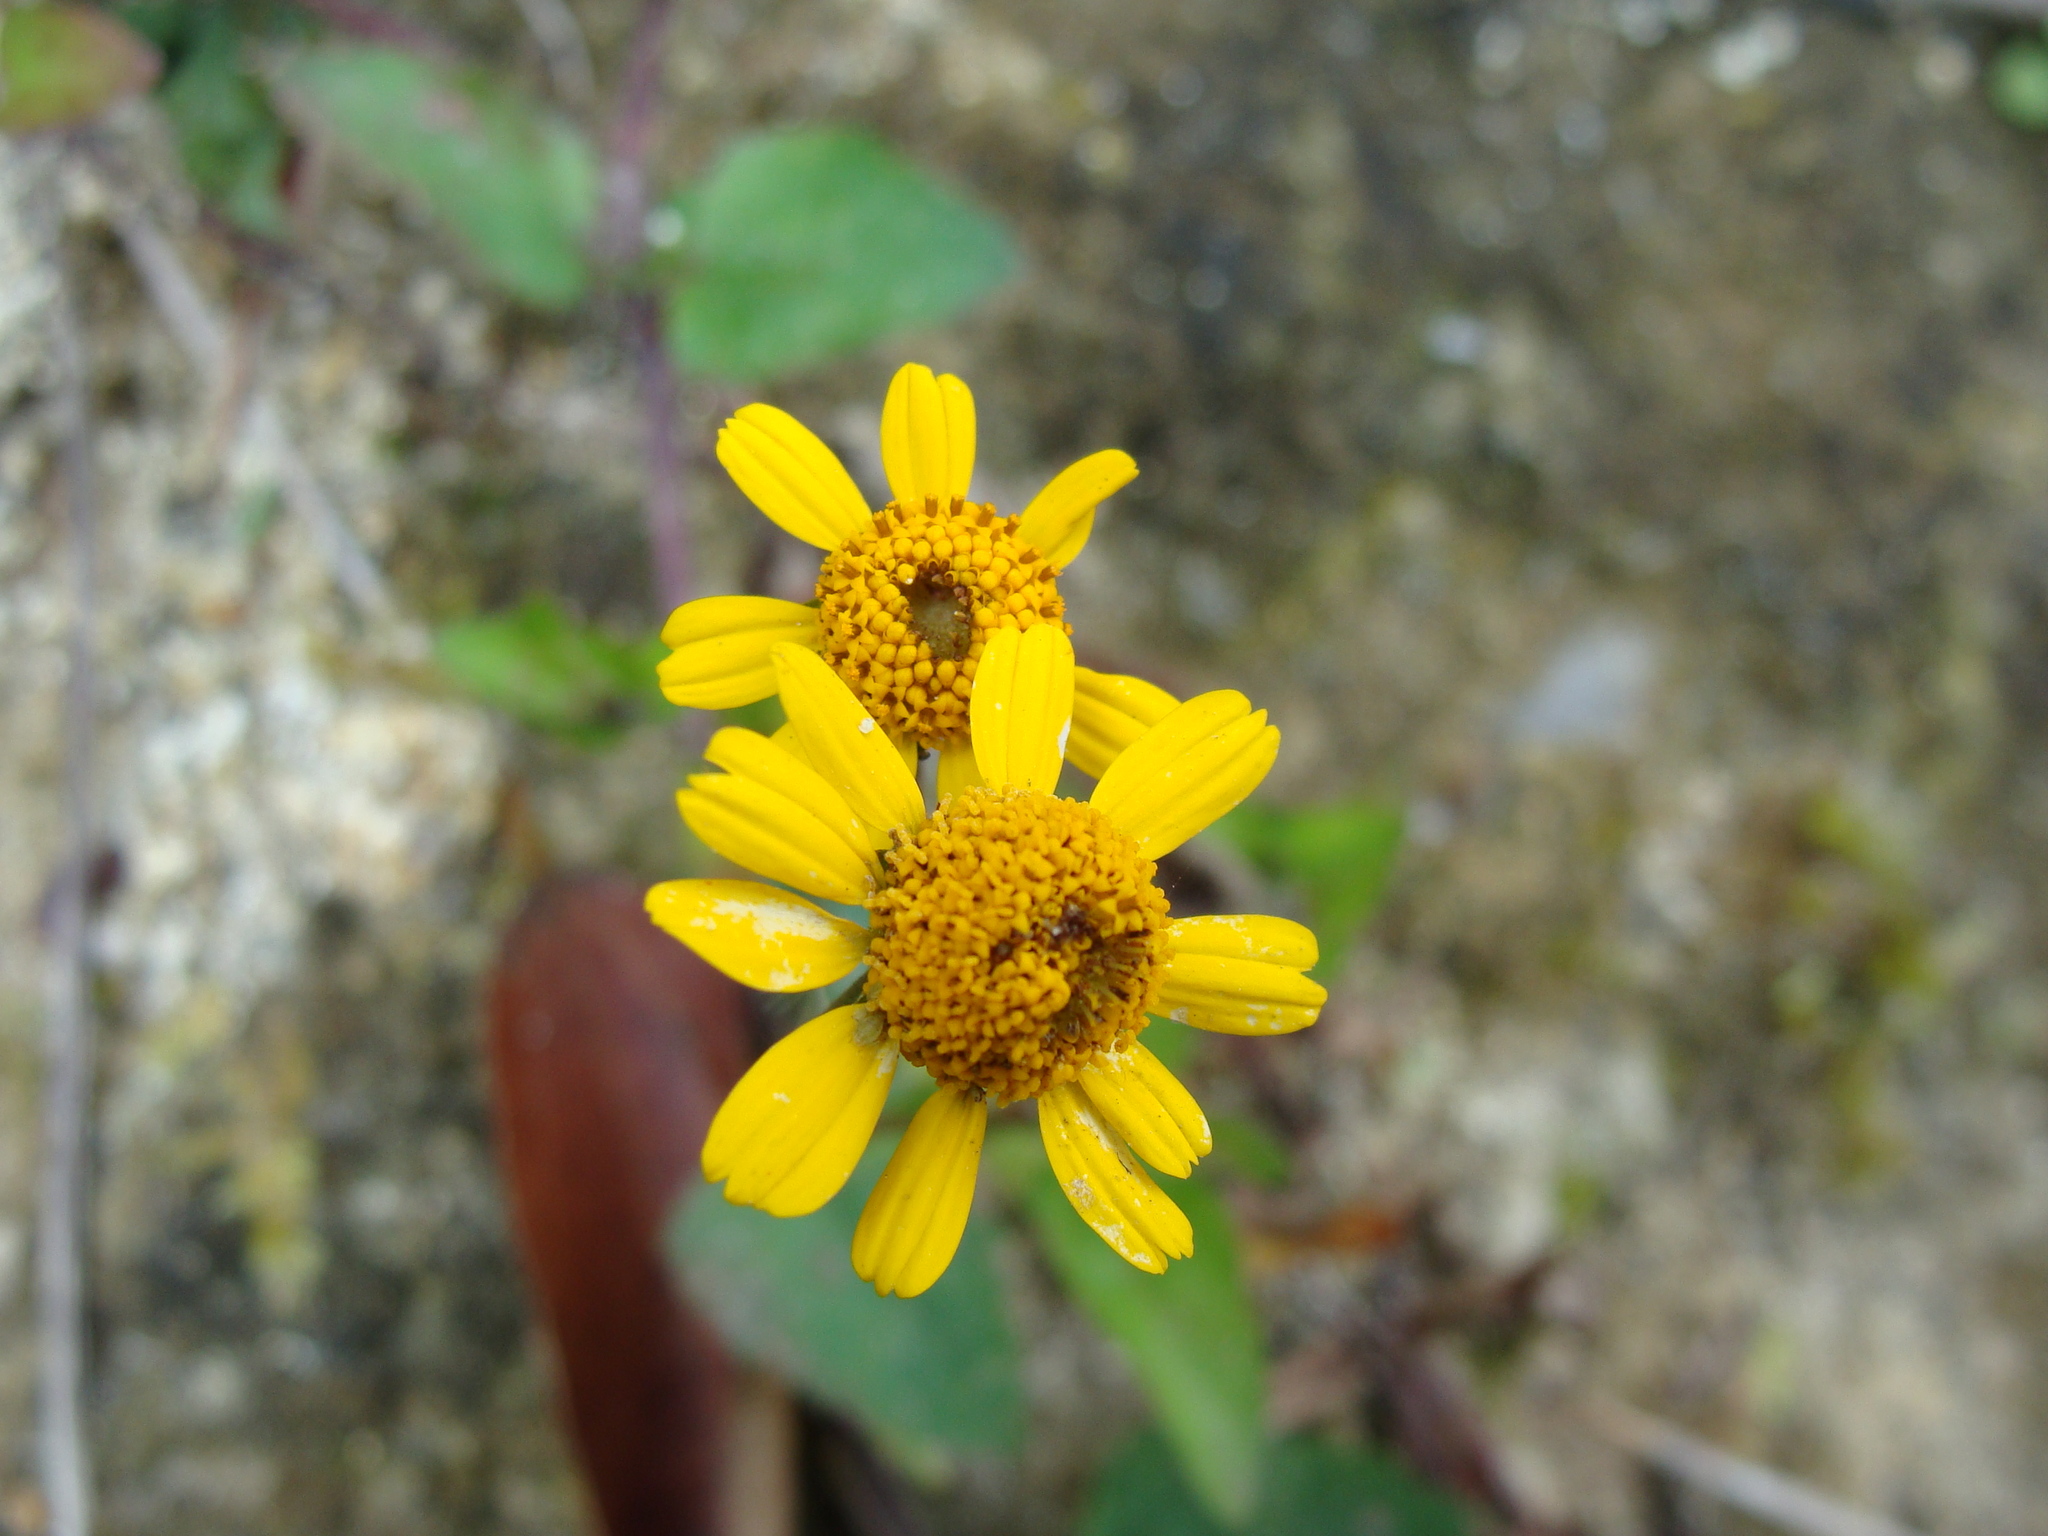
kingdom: Plantae
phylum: Tracheophyta
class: Magnoliopsida
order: Asterales
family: Asteraceae
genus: Acmella
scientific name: Acmella repens
